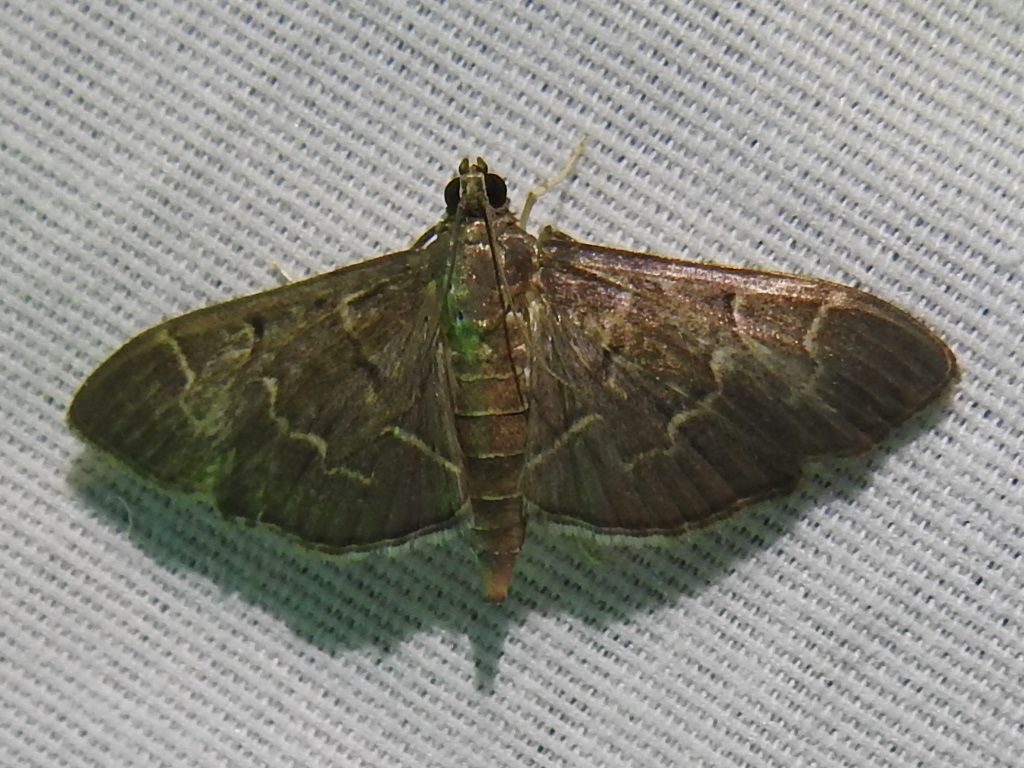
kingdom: Animalia
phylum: Arthropoda
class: Insecta
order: Lepidoptera
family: Crambidae
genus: Pilocrocis
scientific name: Pilocrocis ramentalis
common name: Scraped pilocrocis
